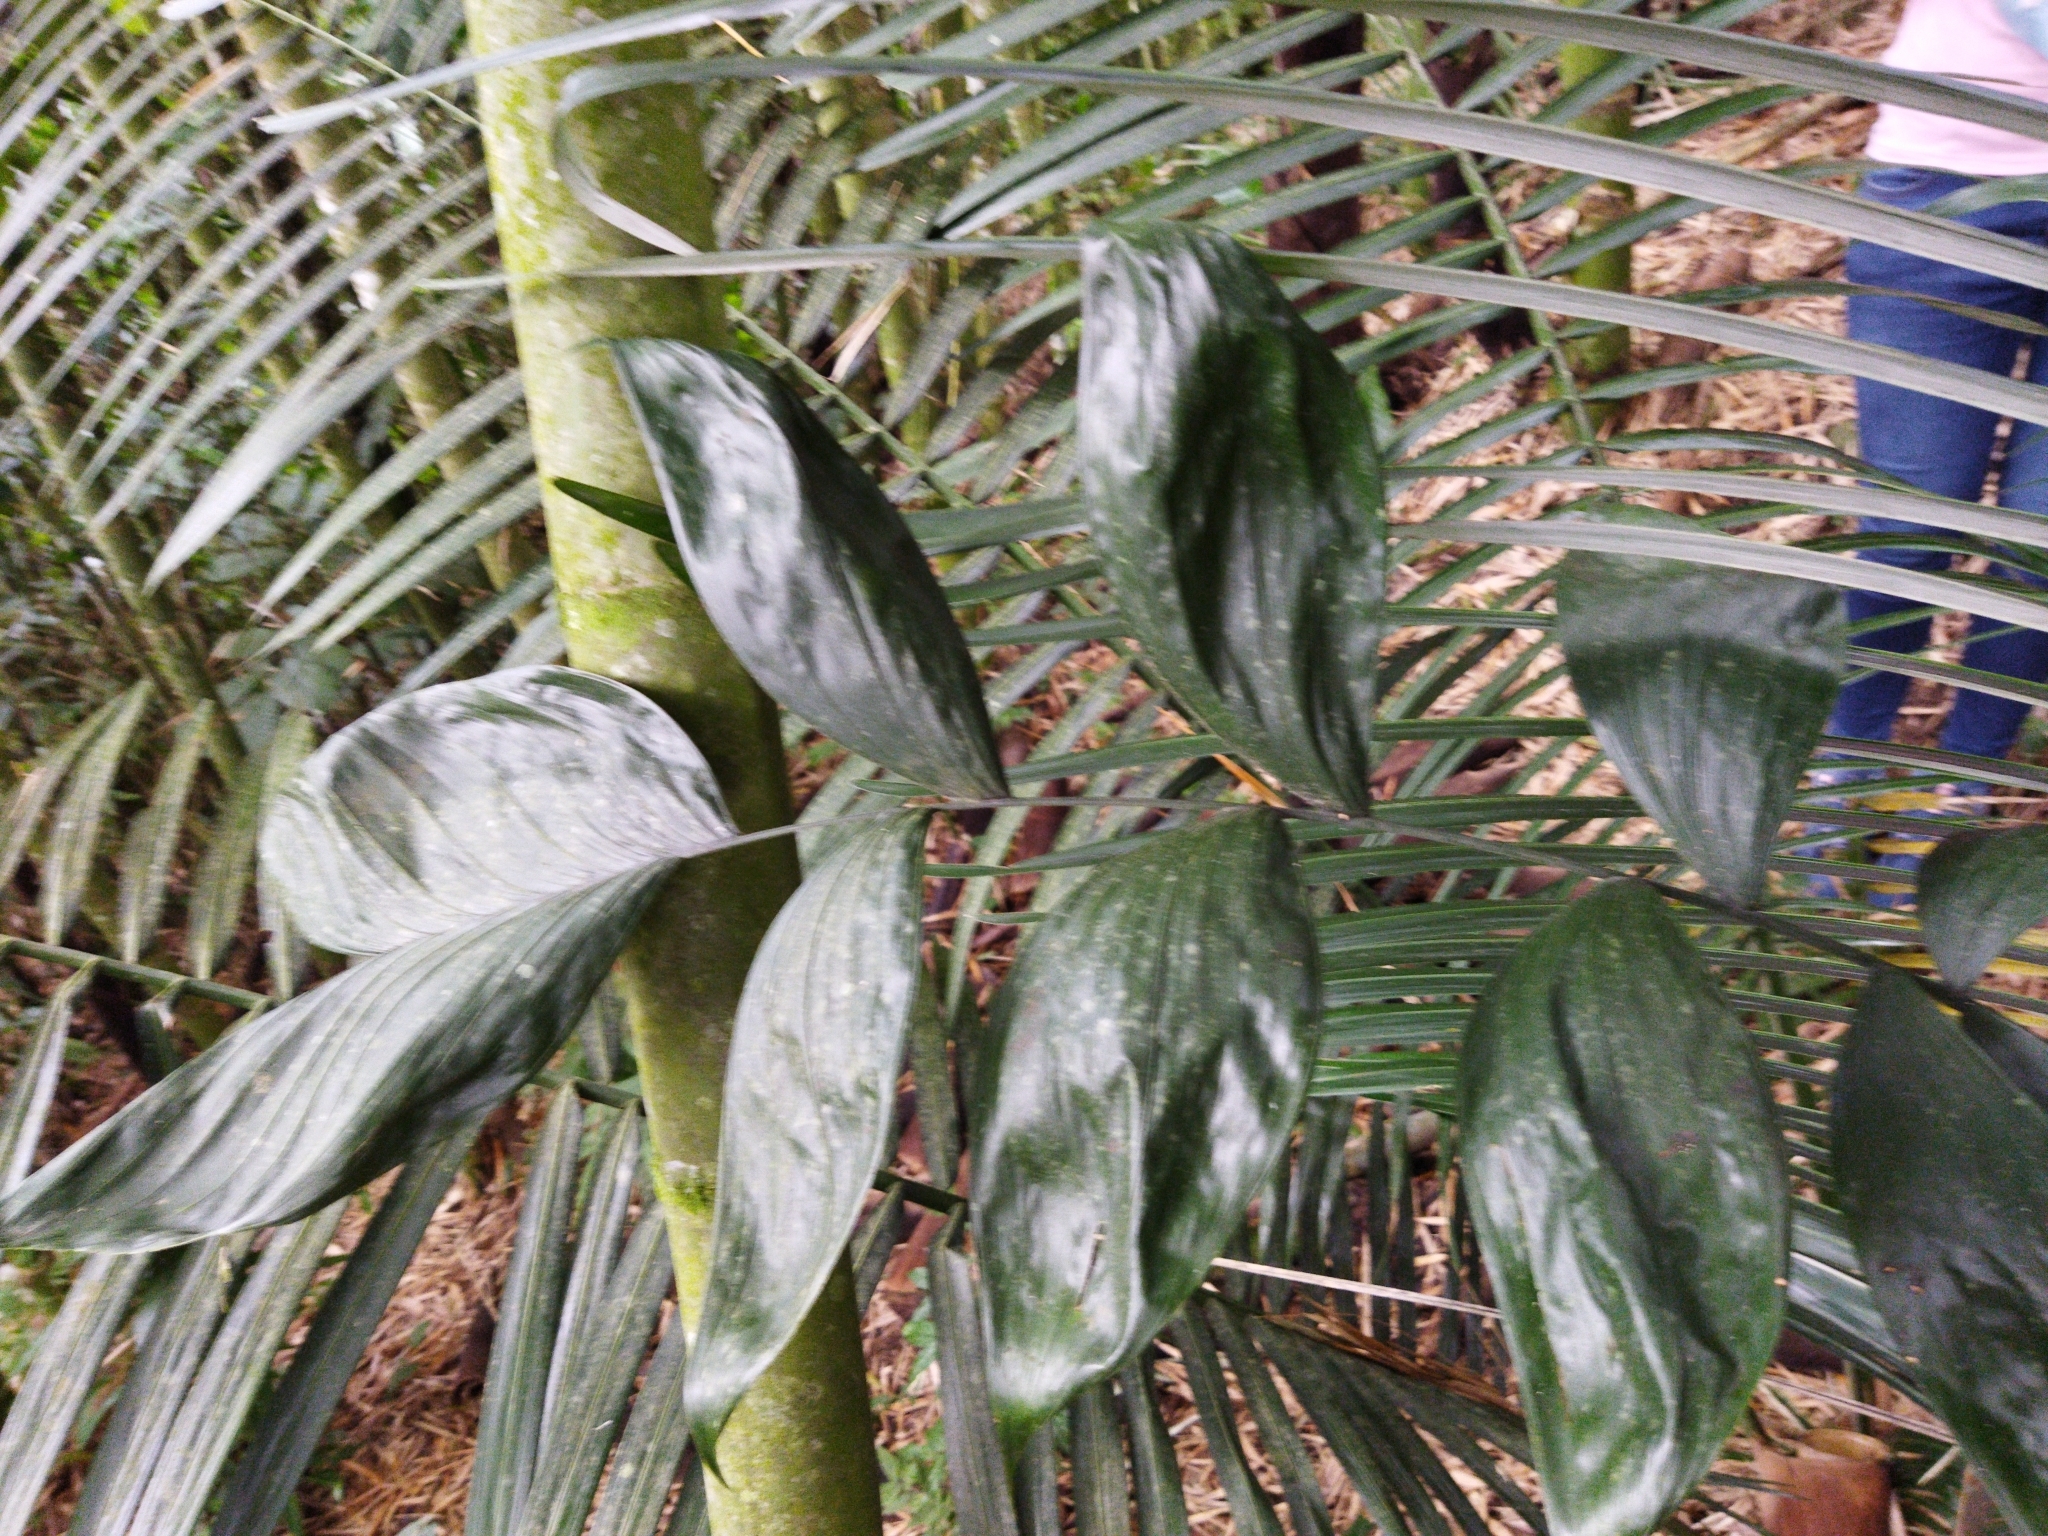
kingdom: Plantae
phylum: Tracheophyta
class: Liliopsida
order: Arecales
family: Arecaceae
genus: Chamaedorea
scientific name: Chamaedorea pinnatifrons
